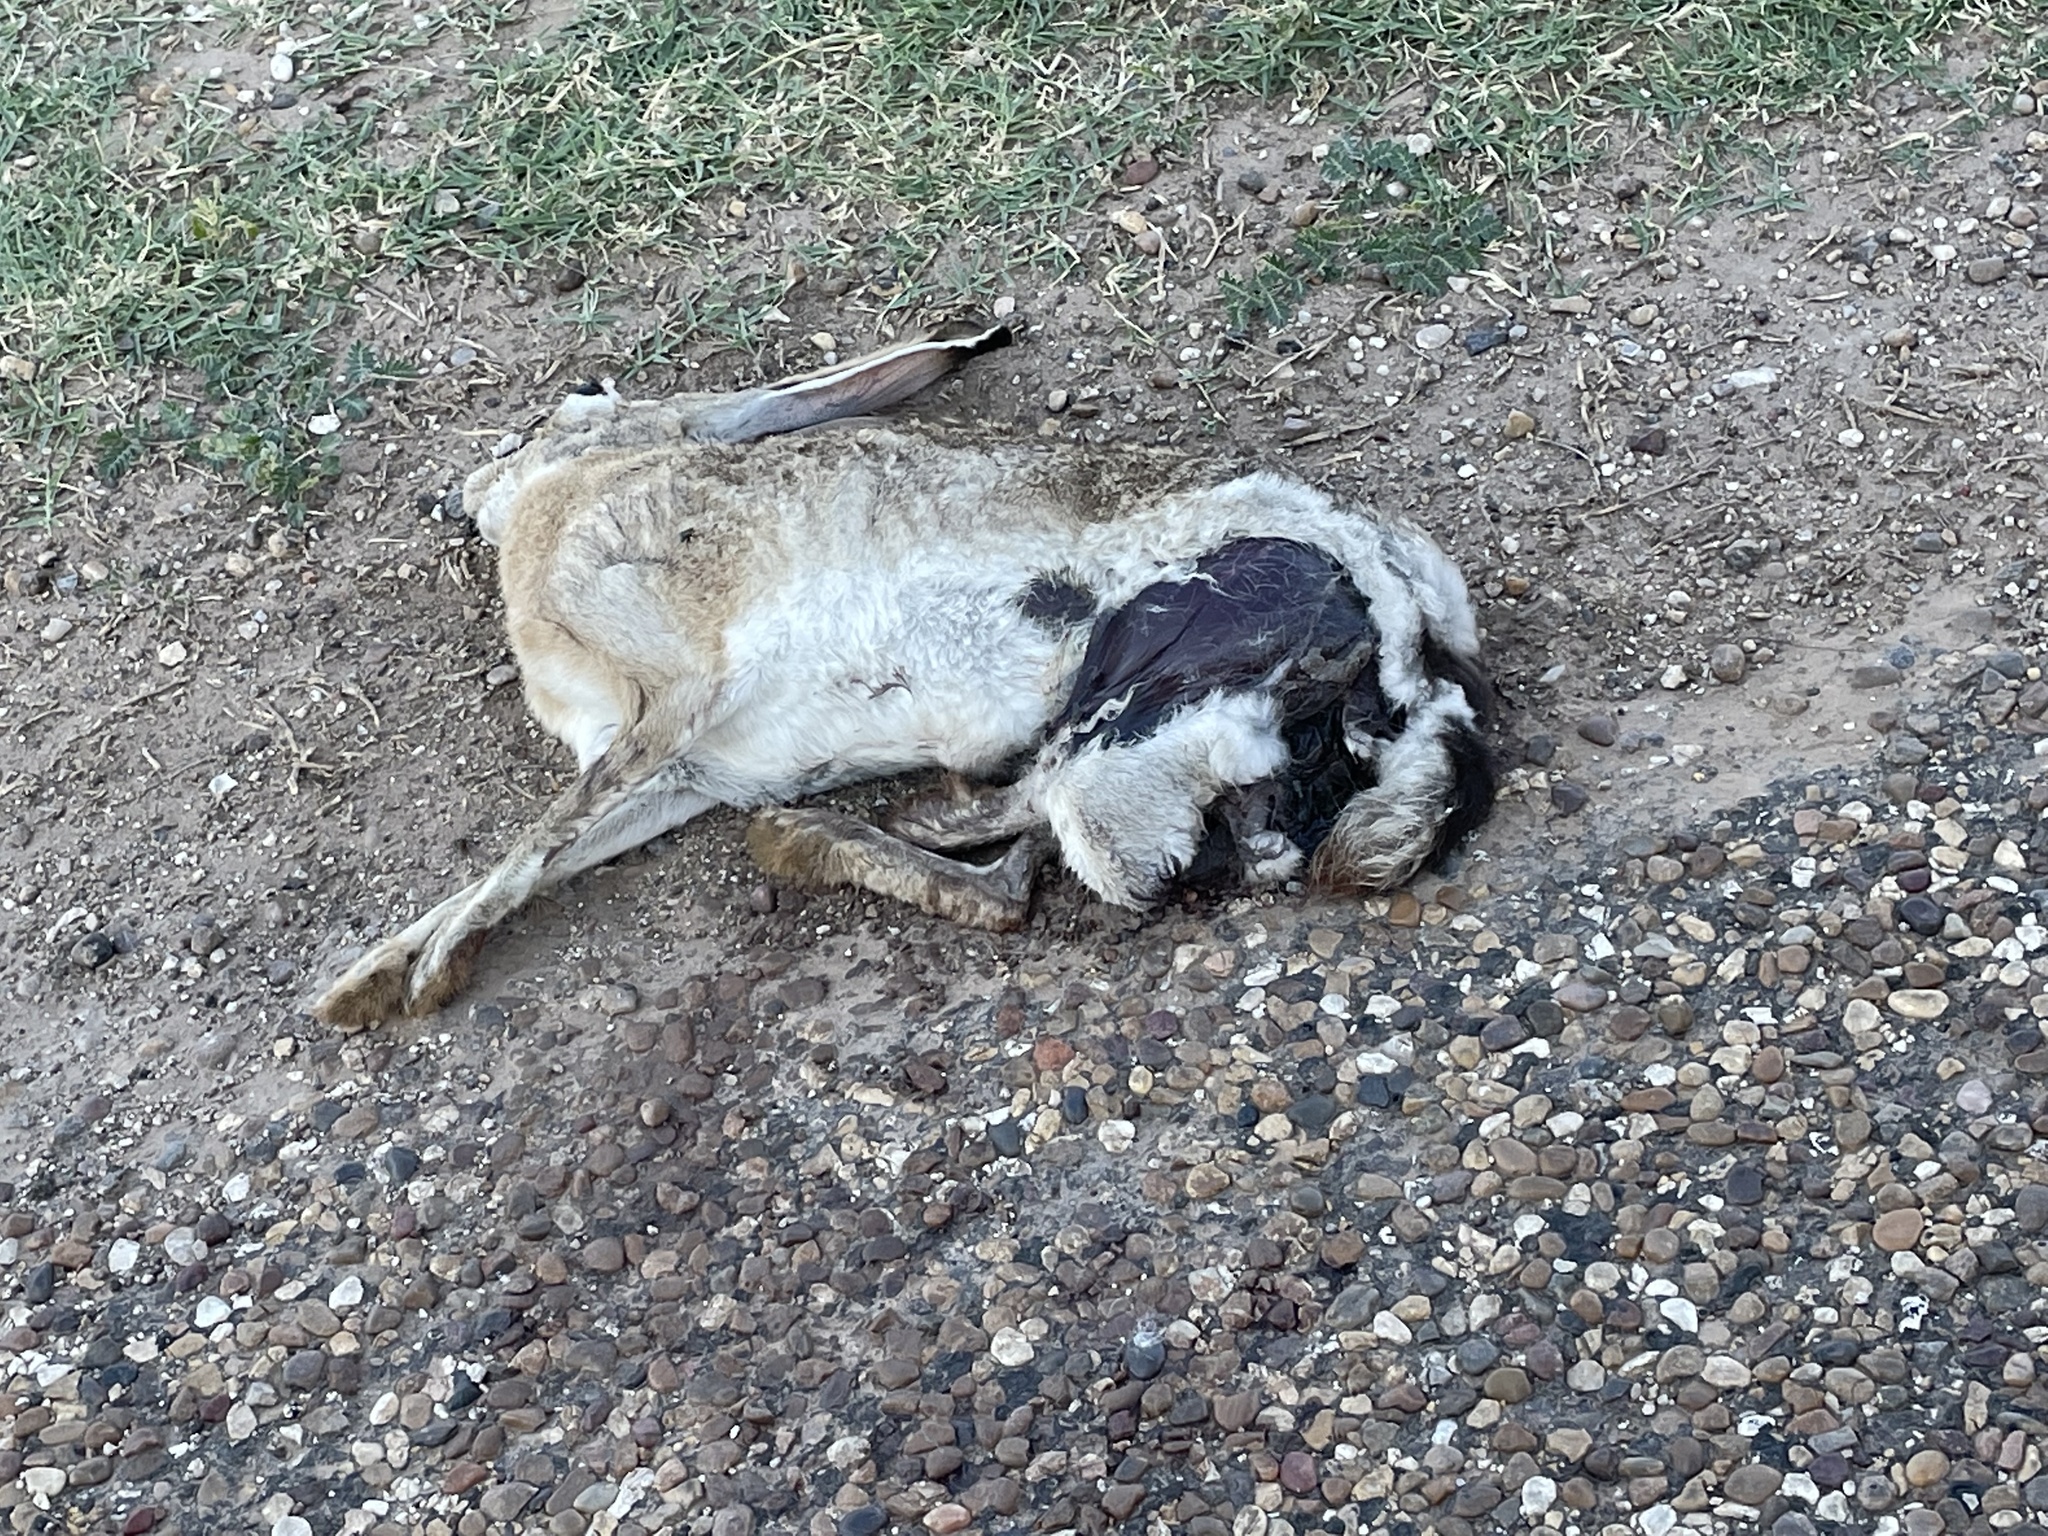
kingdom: Animalia
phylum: Chordata
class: Mammalia
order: Lagomorpha
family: Leporidae
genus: Lepus
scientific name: Lepus californicus
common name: Black-tailed jackrabbit
